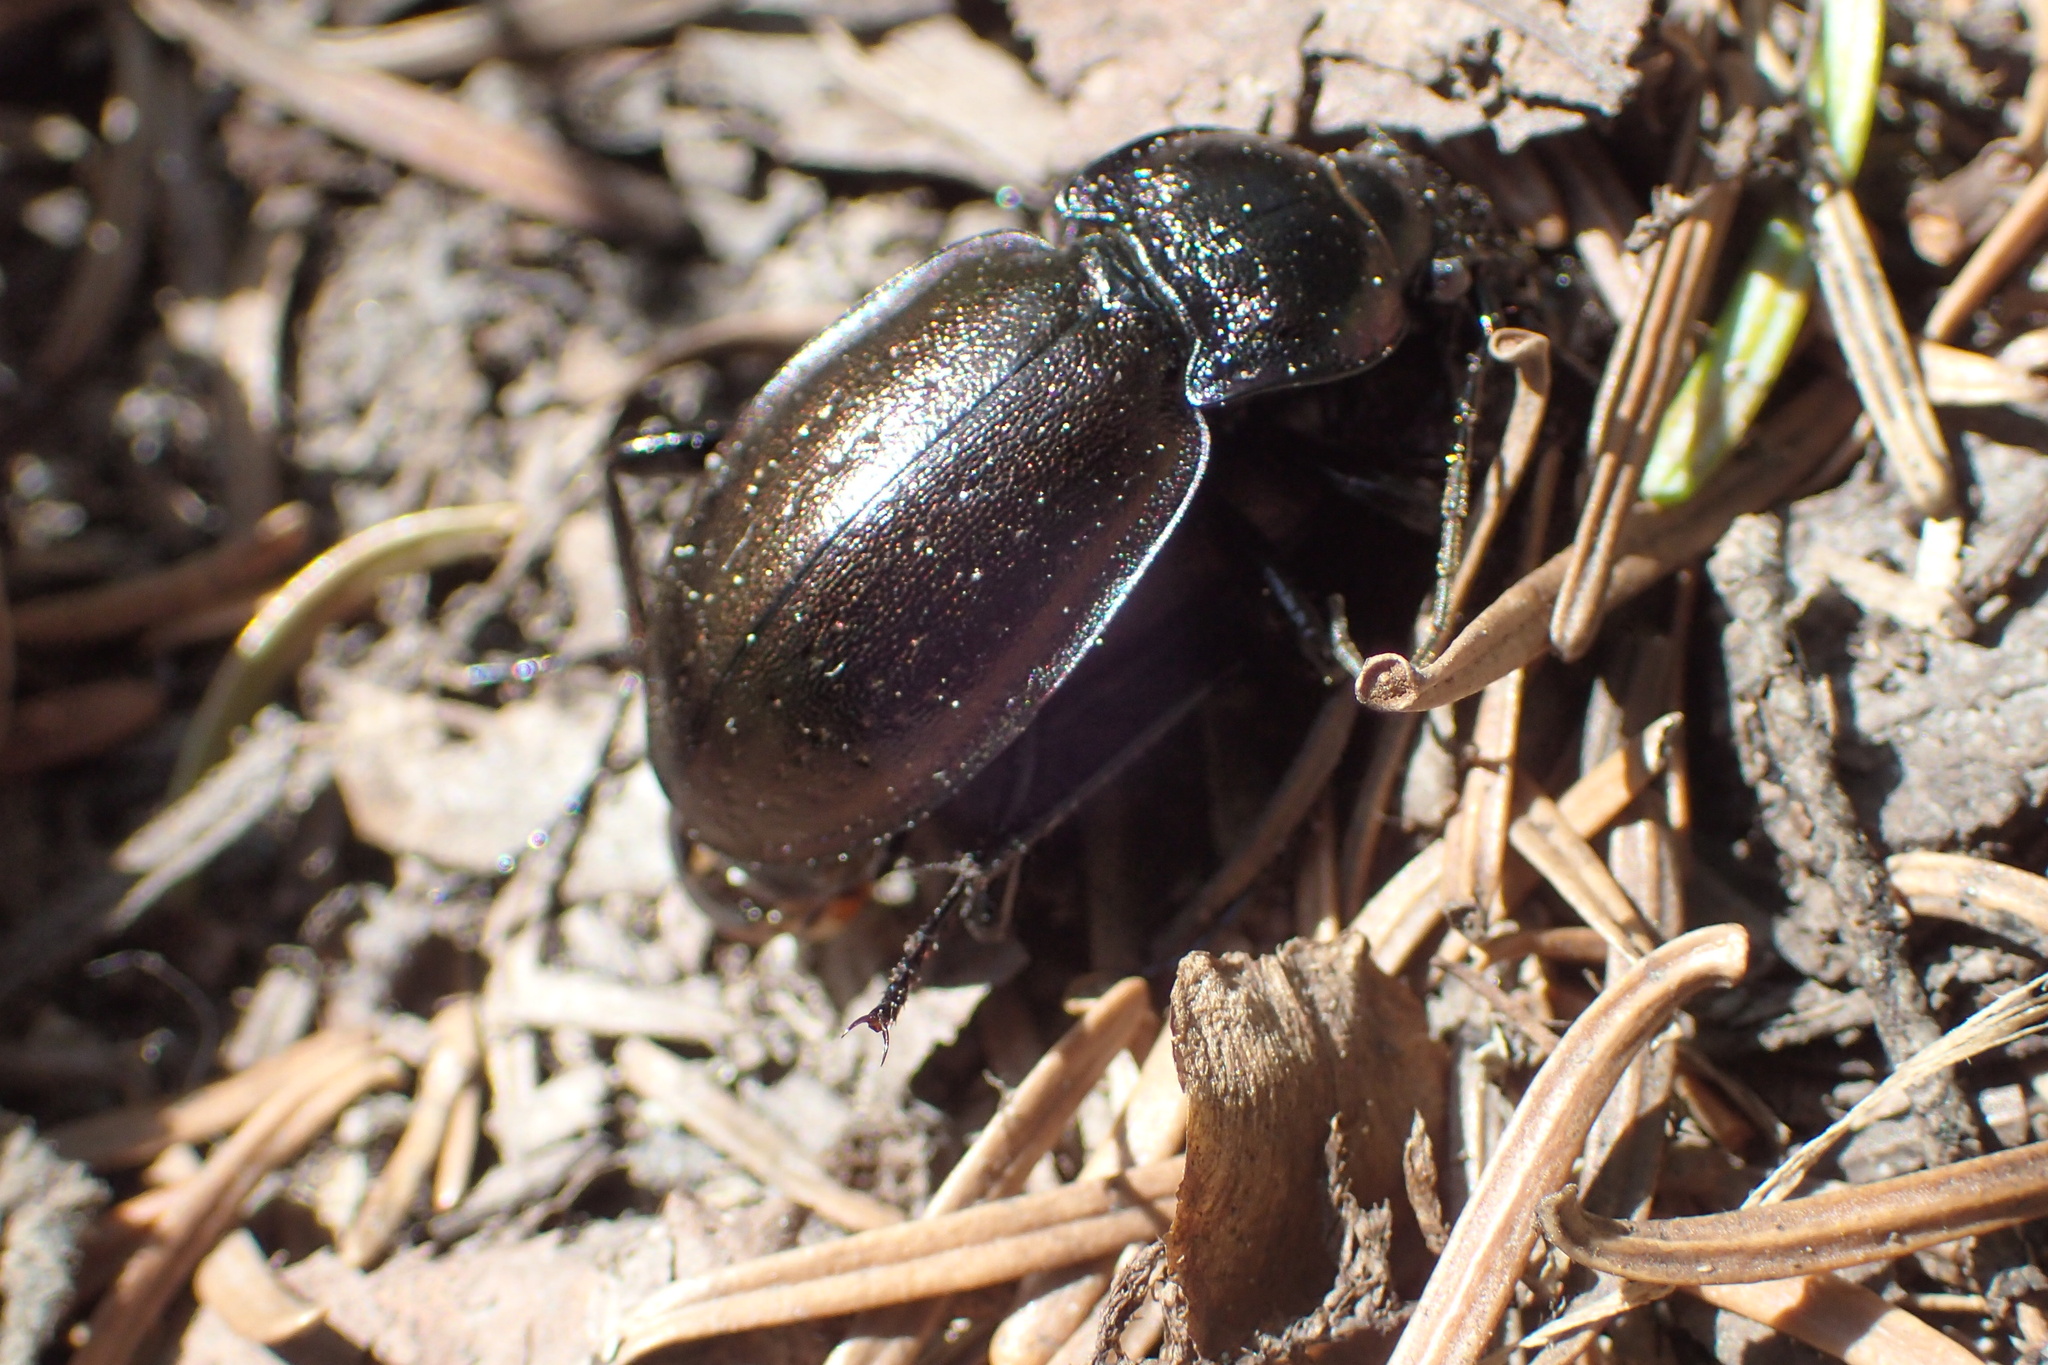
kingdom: Animalia
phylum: Arthropoda
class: Insecta
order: Coleoptera
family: Carabidae
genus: Carabus
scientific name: Carabus nemoralis
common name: European ground beetle
